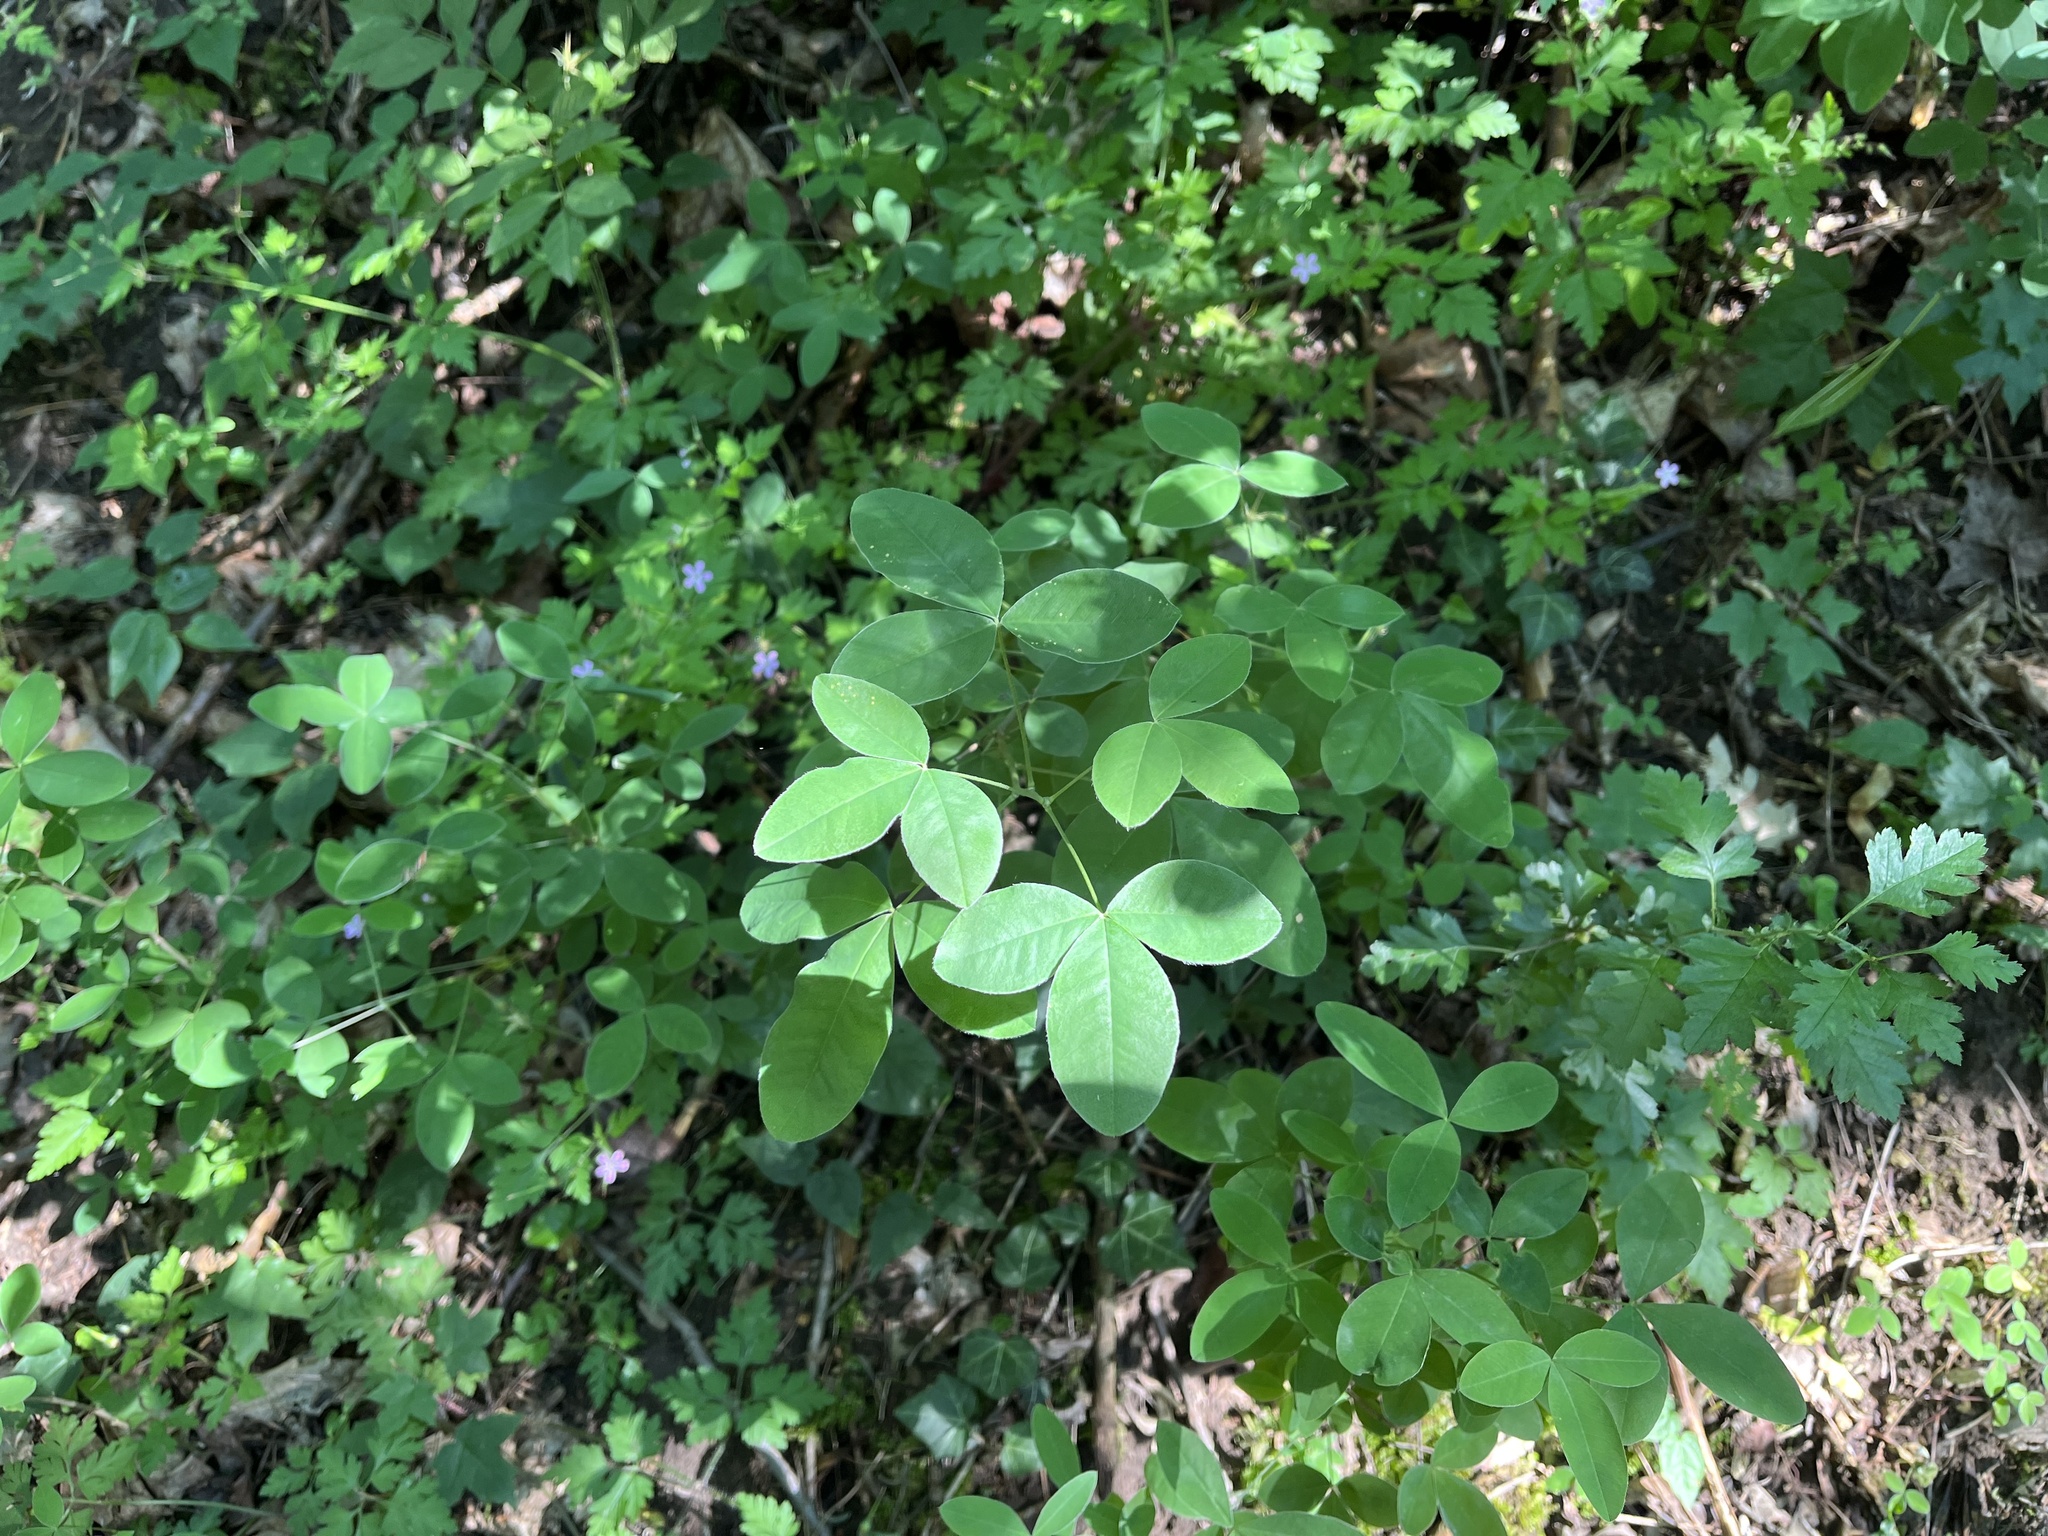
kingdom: Plantae
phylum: Tracheophyta
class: Magnoliopsida
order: Fabales
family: Fabaceae
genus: Laburnum
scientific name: Laburnum anagyroides
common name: Laburnum
